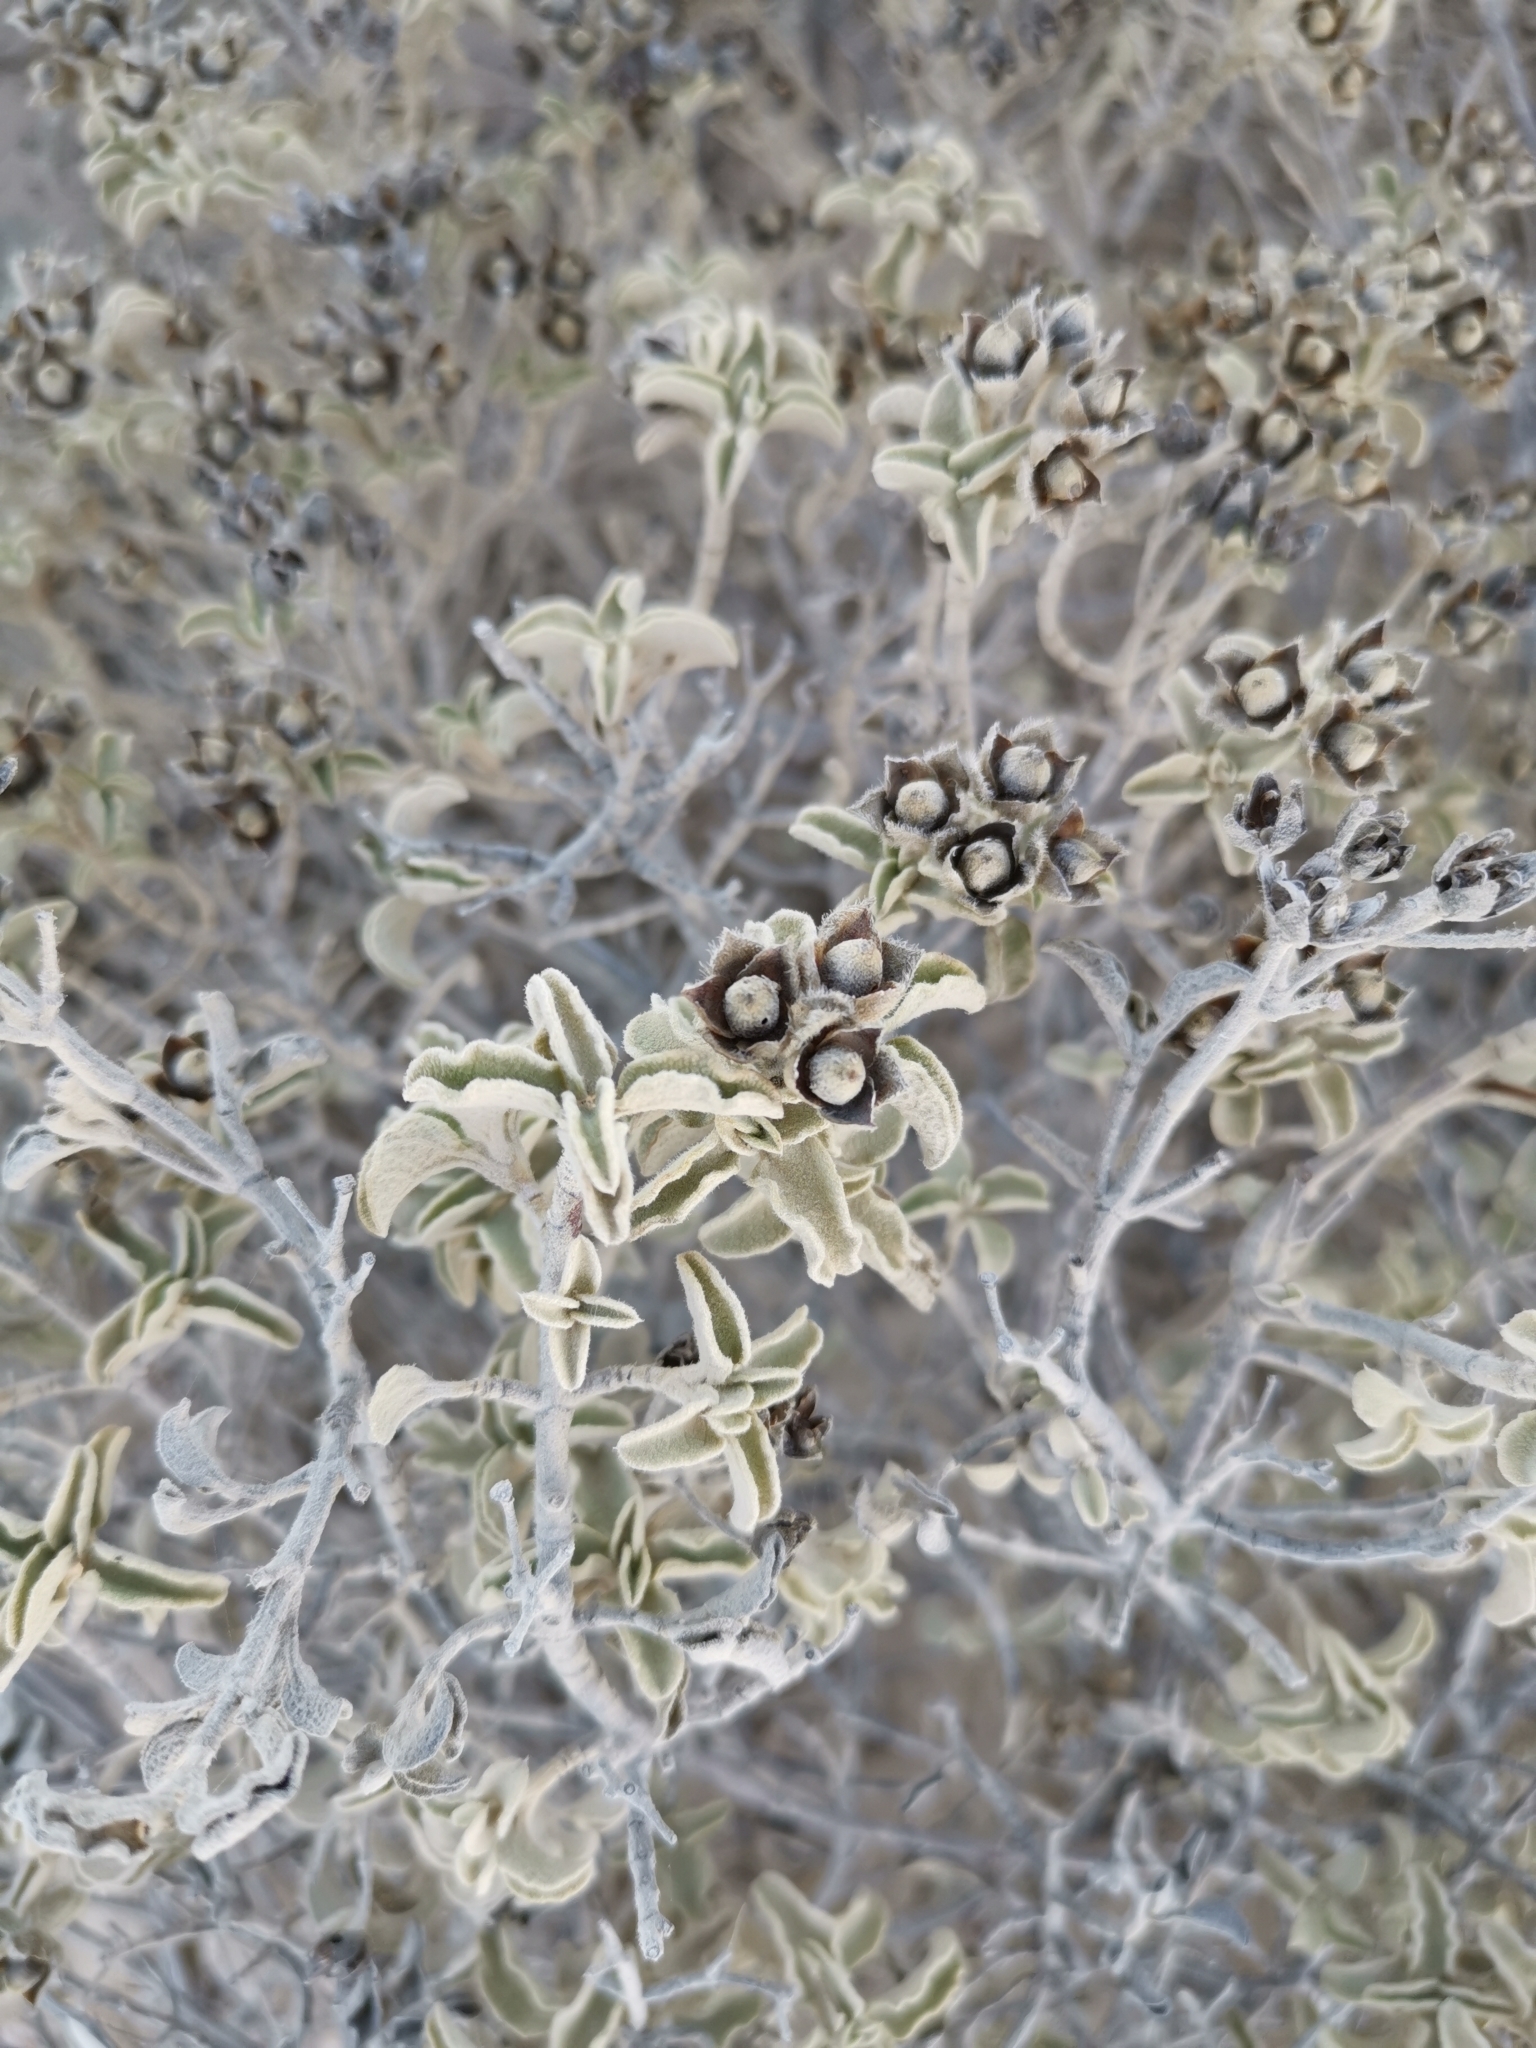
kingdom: Plantae
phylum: Tracheophyta
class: Magnoliopsida
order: Malvales
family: Cistaceae
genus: Cistus
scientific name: Cistus parviflorus
